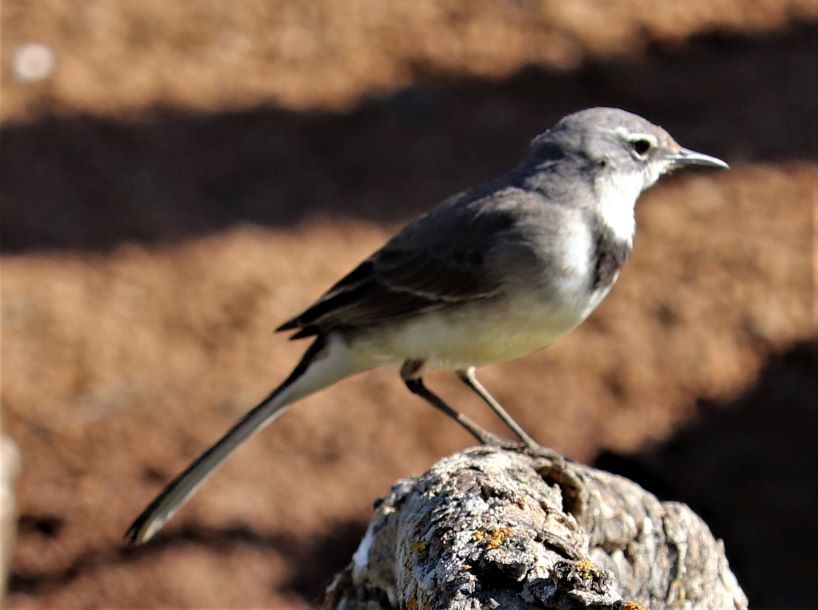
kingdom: Animalia
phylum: Chordata
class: Aves
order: Passeriformes
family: Motacillidae
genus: Motacilla
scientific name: Motacilla capensis
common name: Cape wagtail
